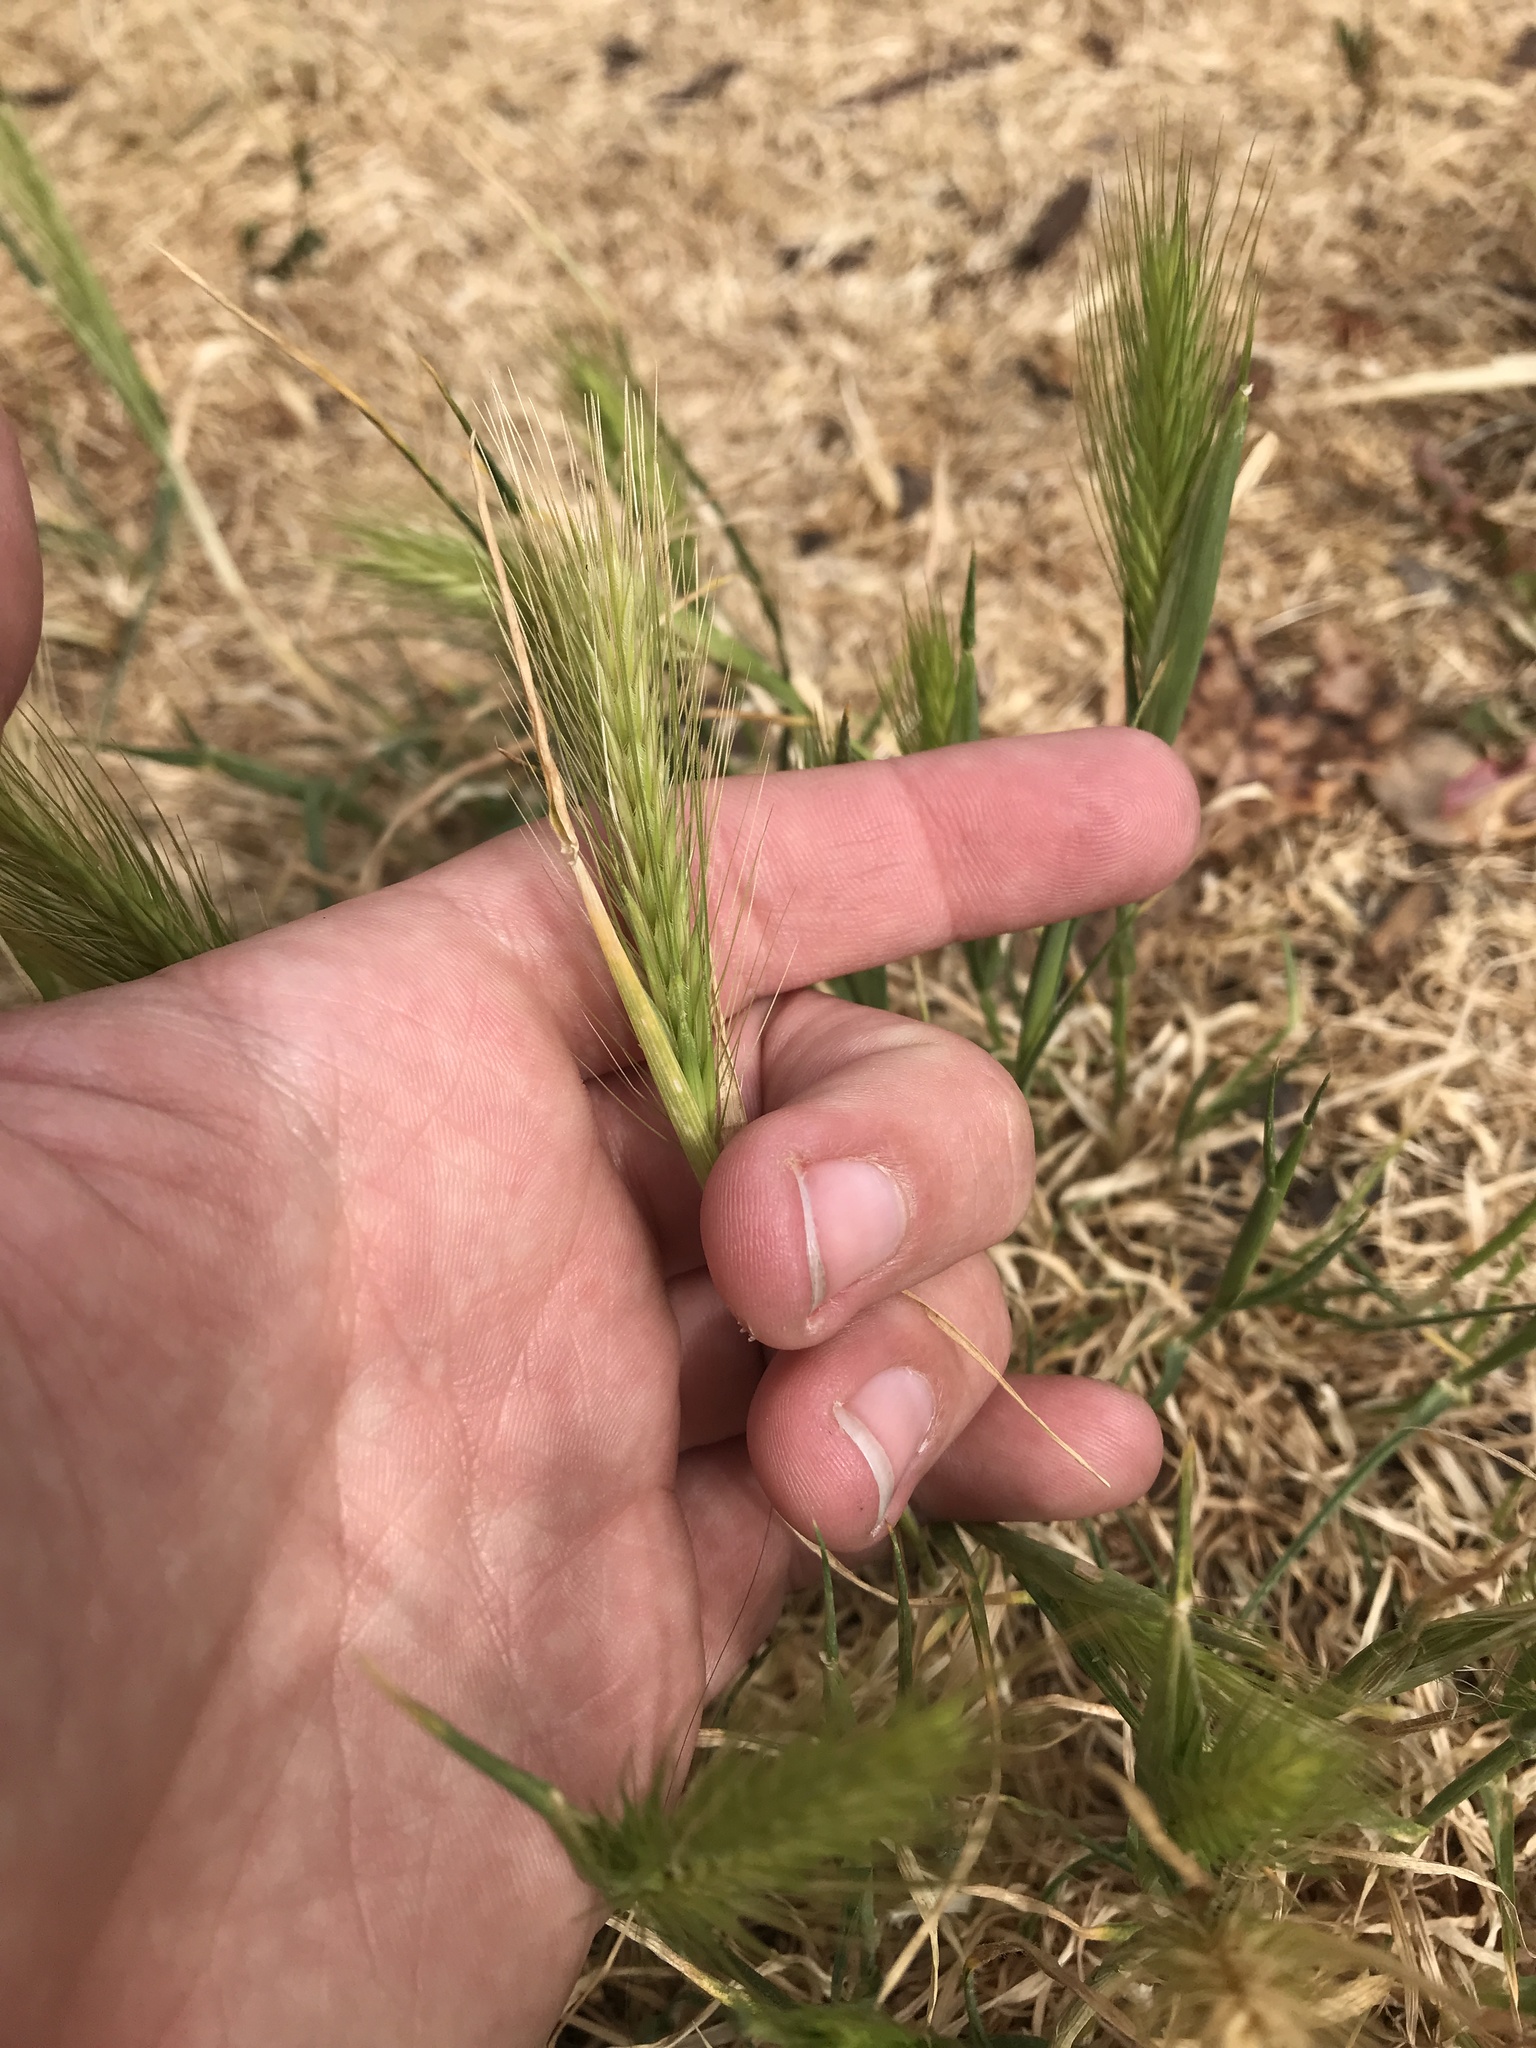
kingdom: Plantae
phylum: Tracheophyta
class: Liliopsida
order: Poales
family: Poaceae
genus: Hordeum
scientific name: Hordeum murinum
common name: Wall barley
